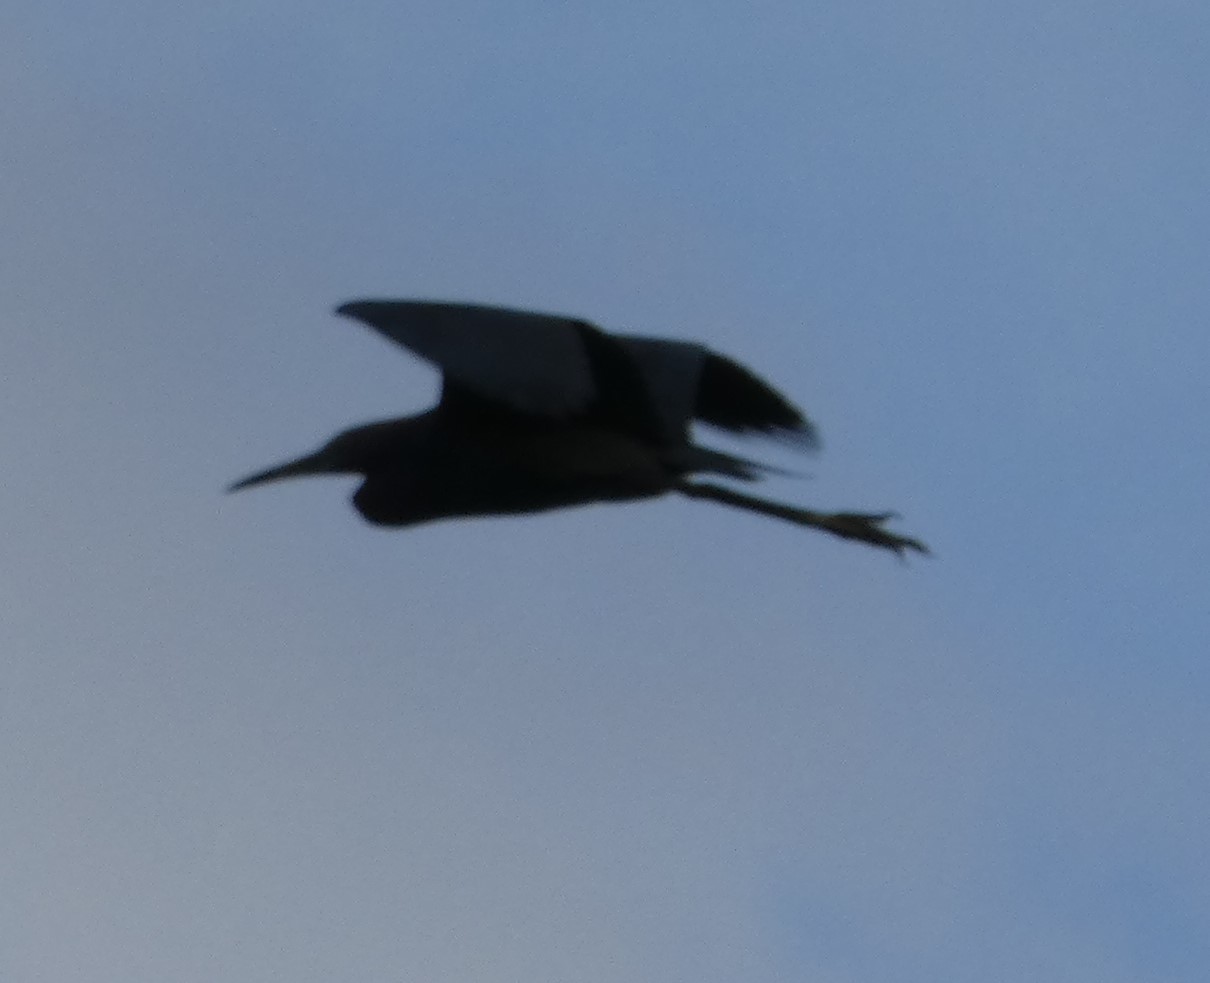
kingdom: Animalia
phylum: Chordata
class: Aves
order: Pelecaniformes
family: Ardeidae
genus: Egretta
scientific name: Egretta caerulea
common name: Little blue heron
